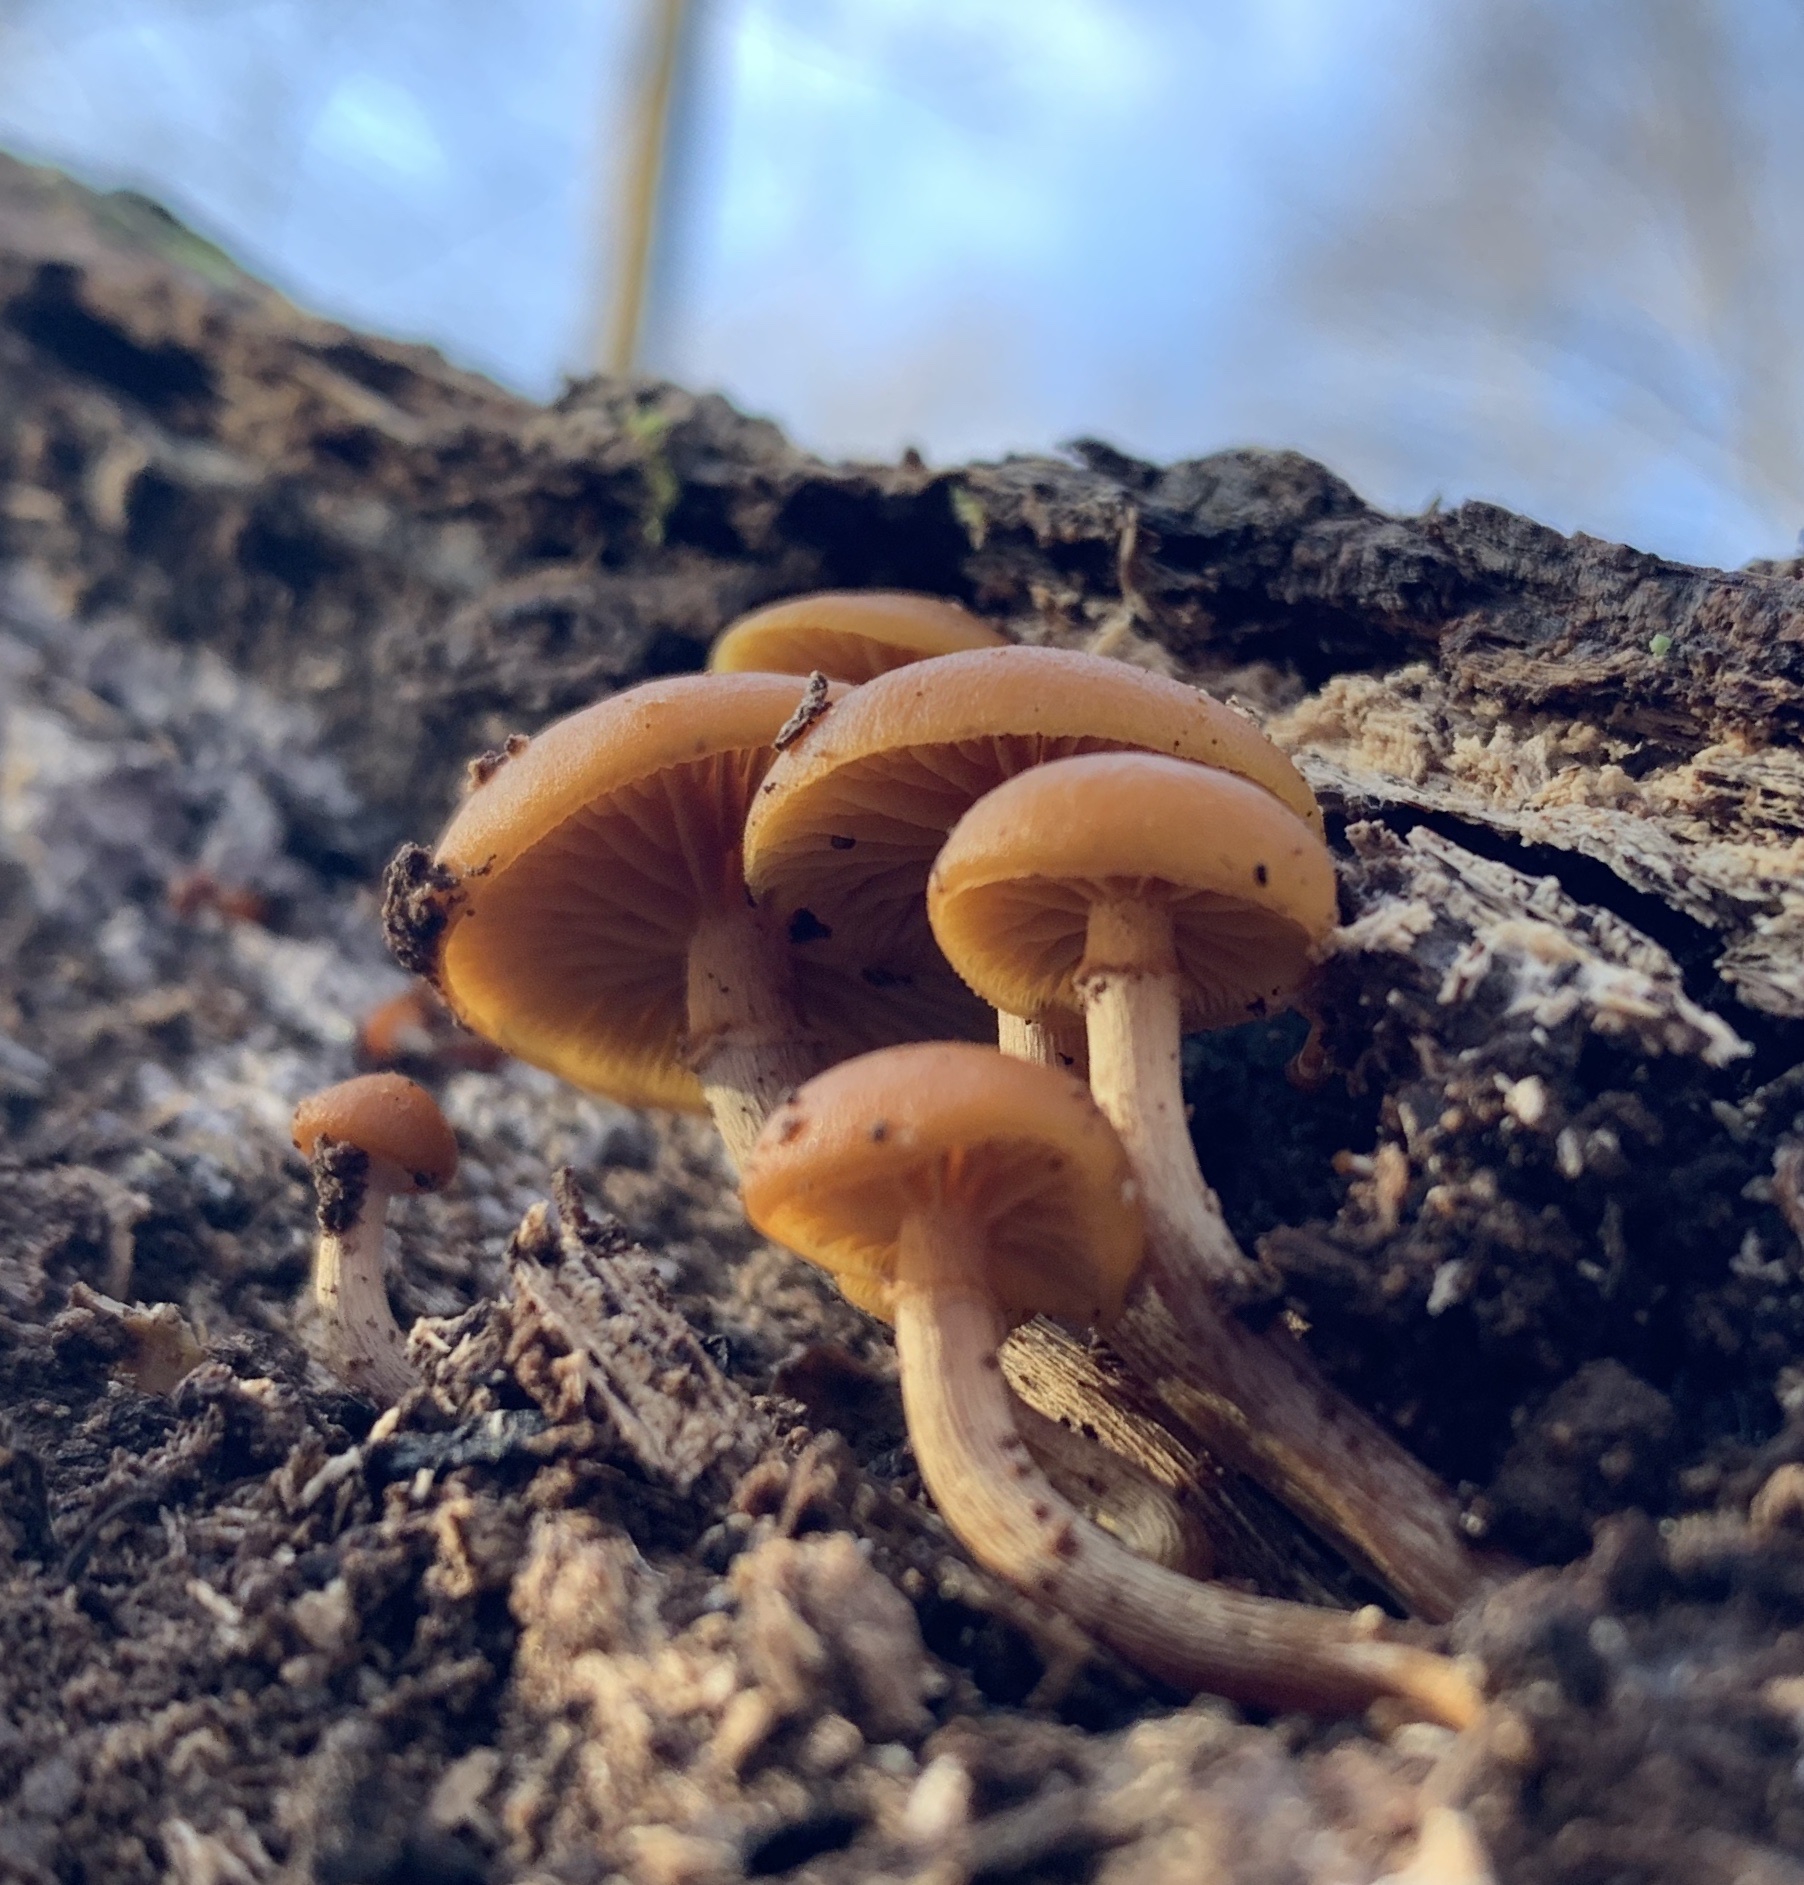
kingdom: Fungi
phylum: Basidiomycota
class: Agaricomycetes
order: Agaricales
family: Hymenogastraceae
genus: Galerina
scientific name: Galerina marginata
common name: Funeral bell
